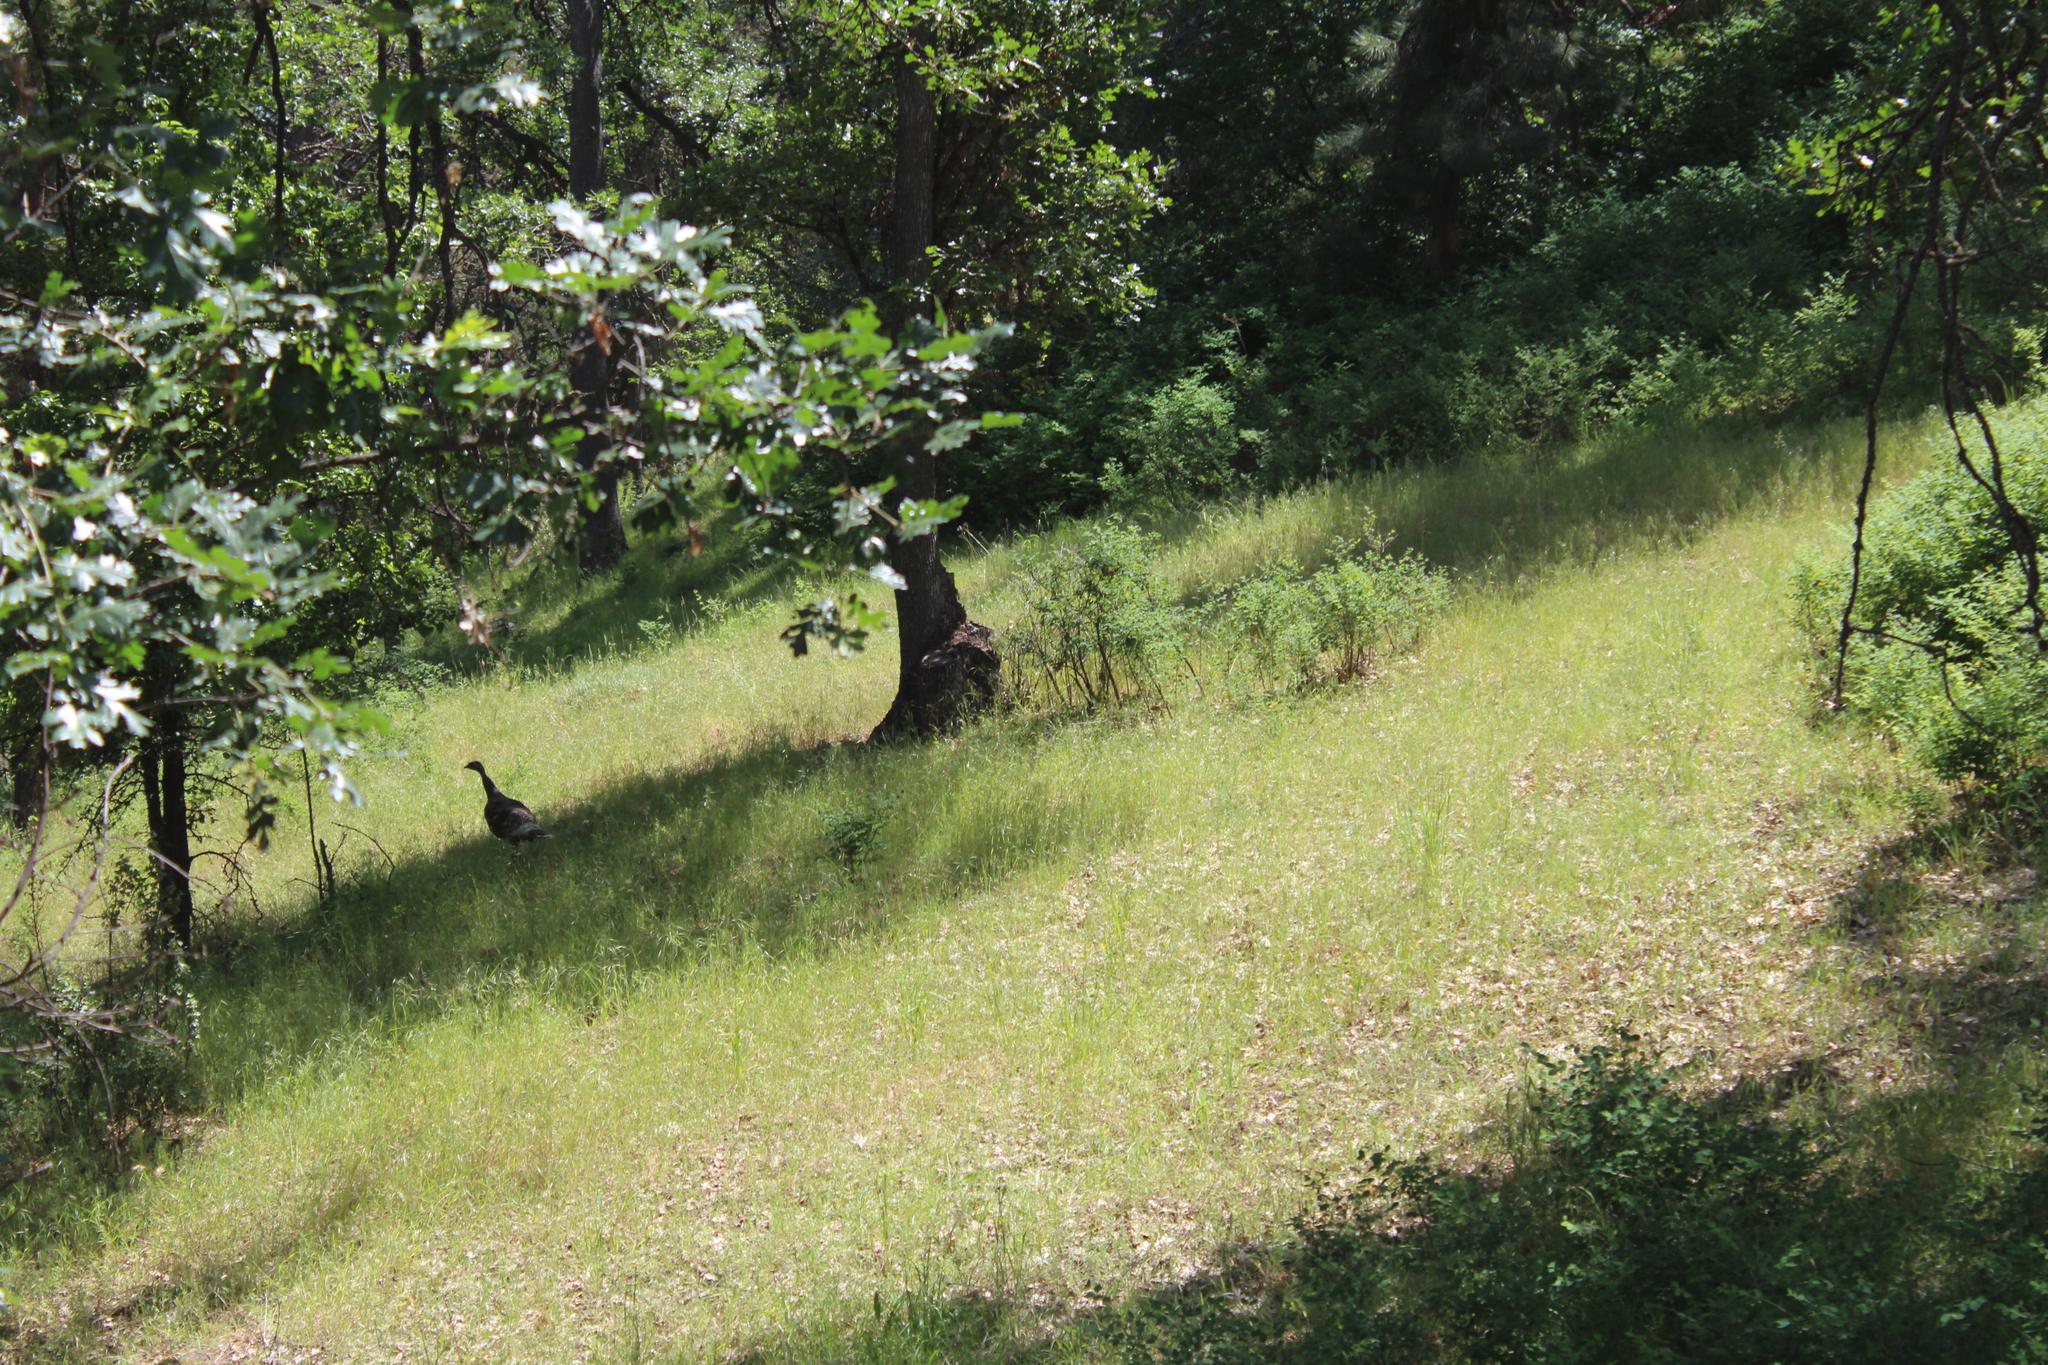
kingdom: Animalia
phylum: Chordata
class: Aves
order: Galliformes
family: Phasianidae
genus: Meleagris
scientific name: Meleagris gallopavo
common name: Wild turkey
